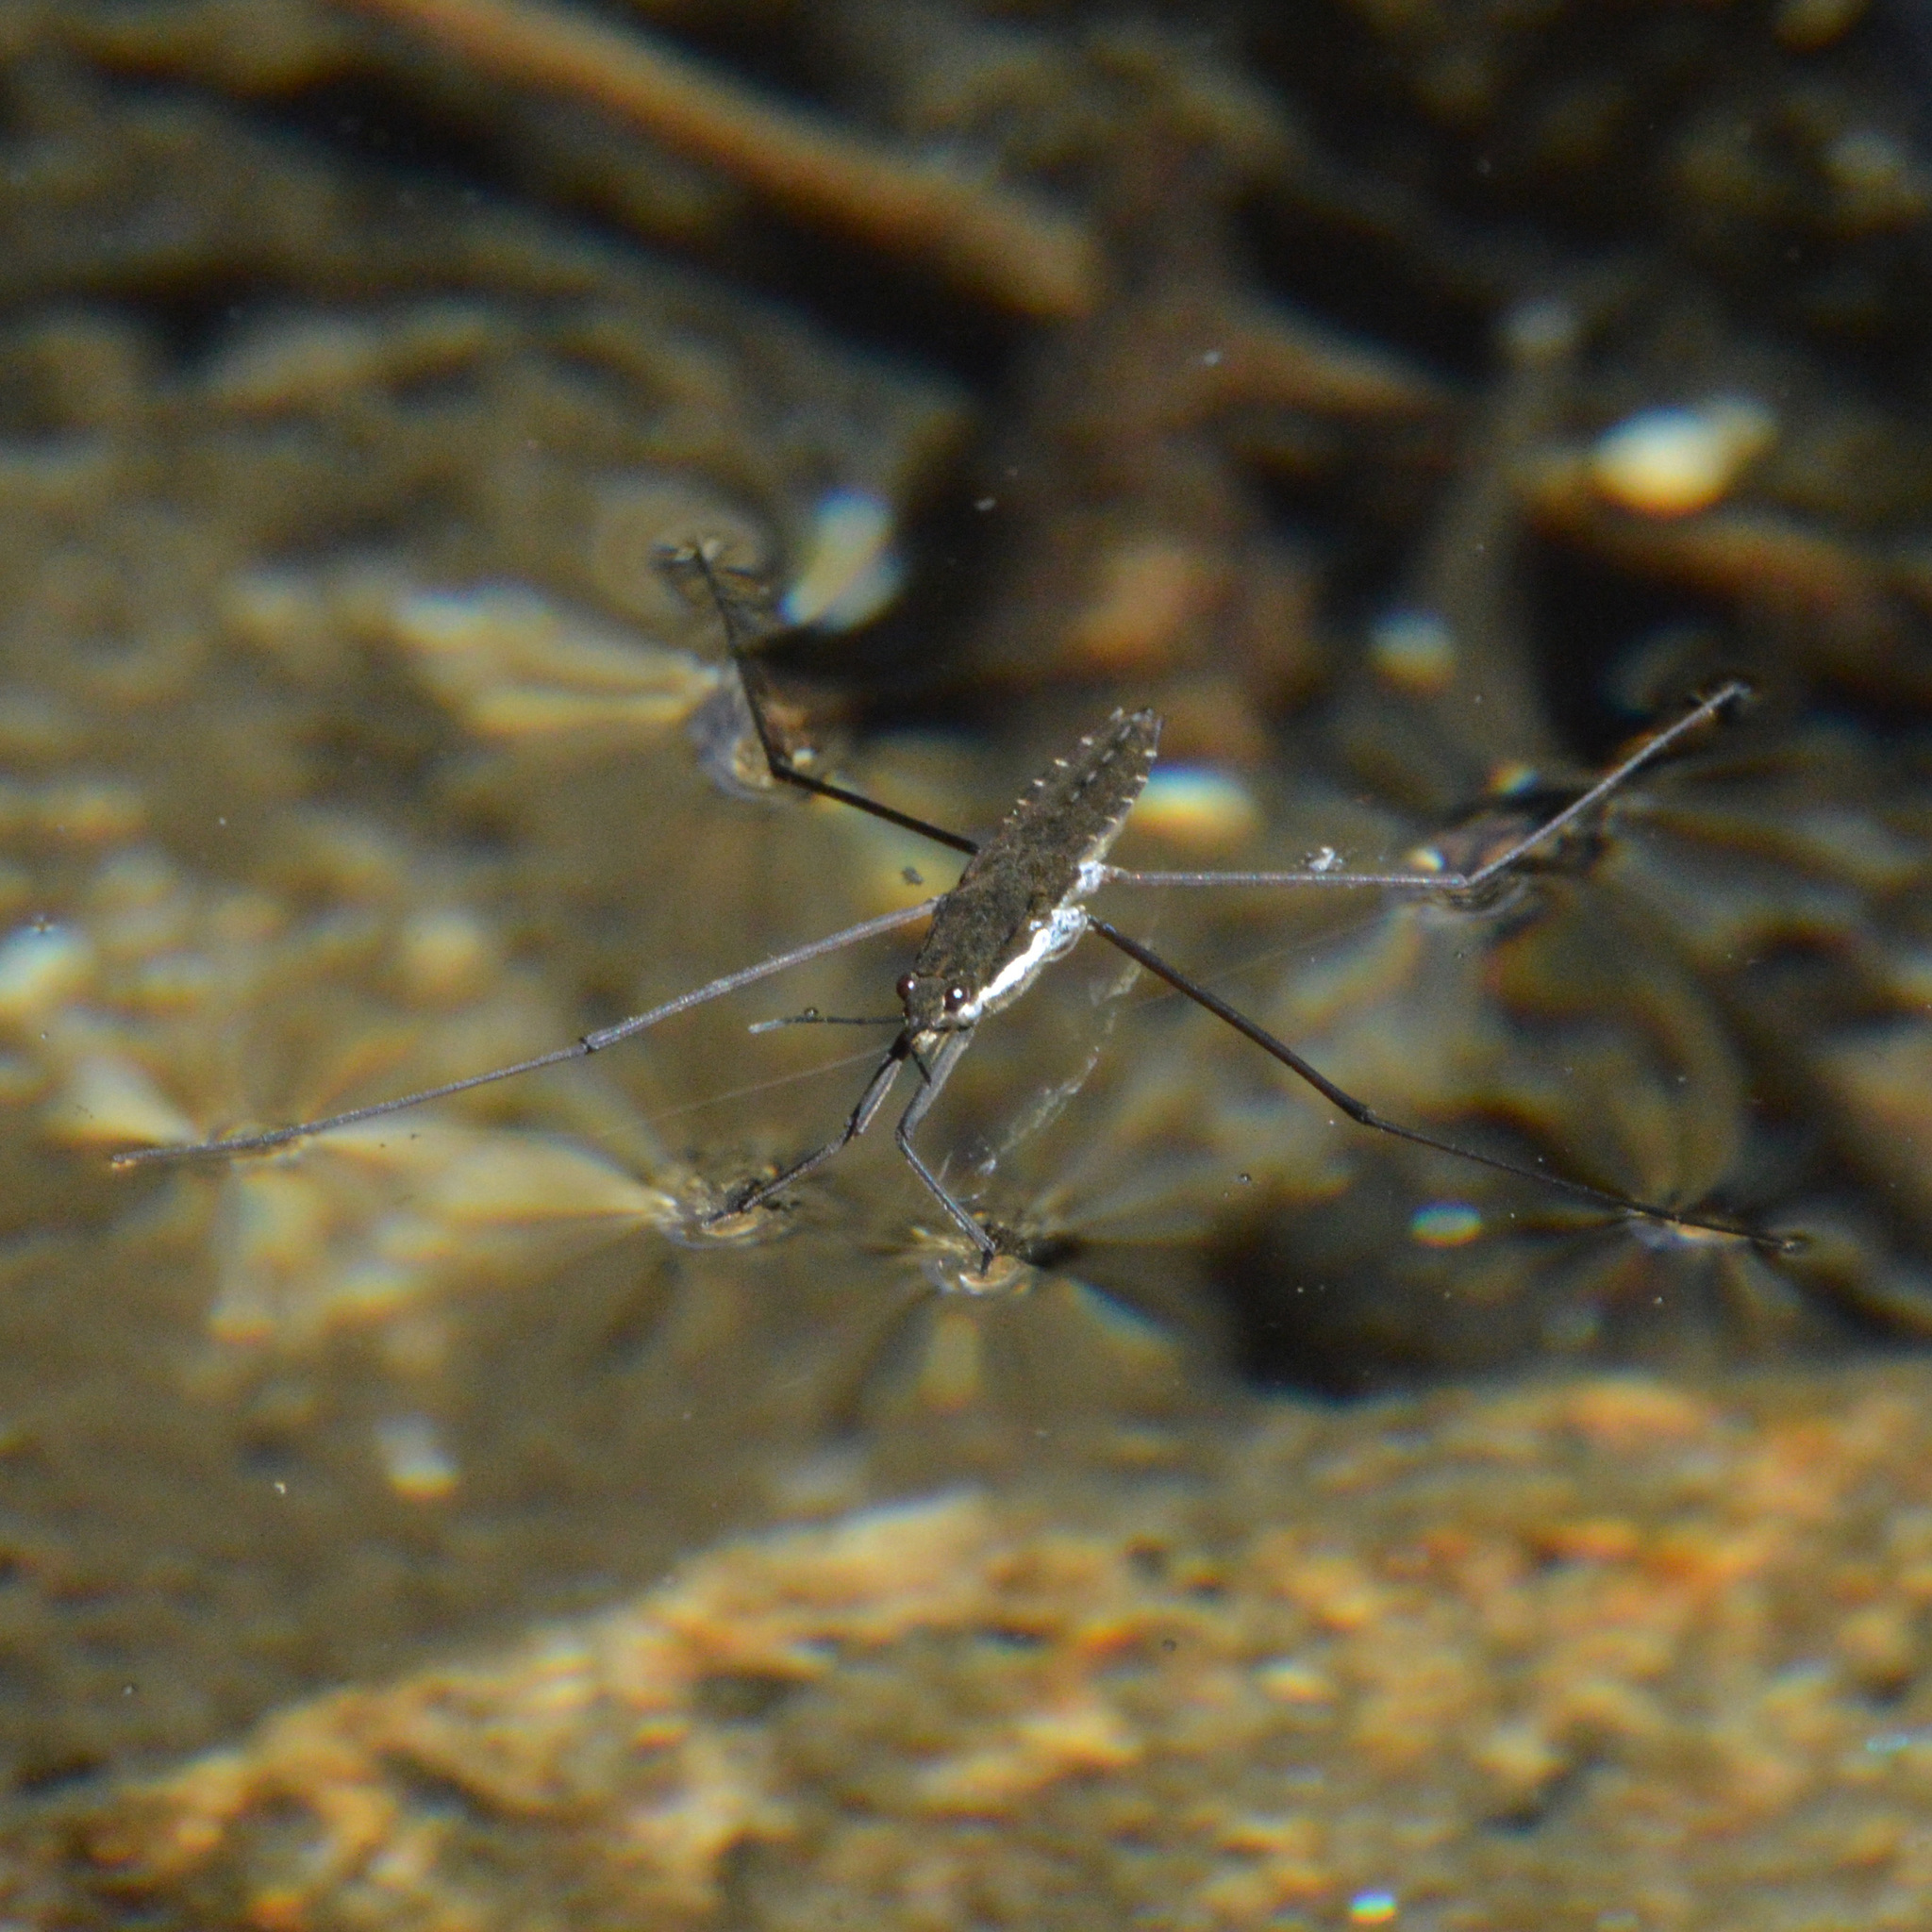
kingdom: Animalia
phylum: Arthropoda
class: Insecta
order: Hemiptera
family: Gerridae
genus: Aquarius
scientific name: Aquarius remigis
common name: Common water strider
